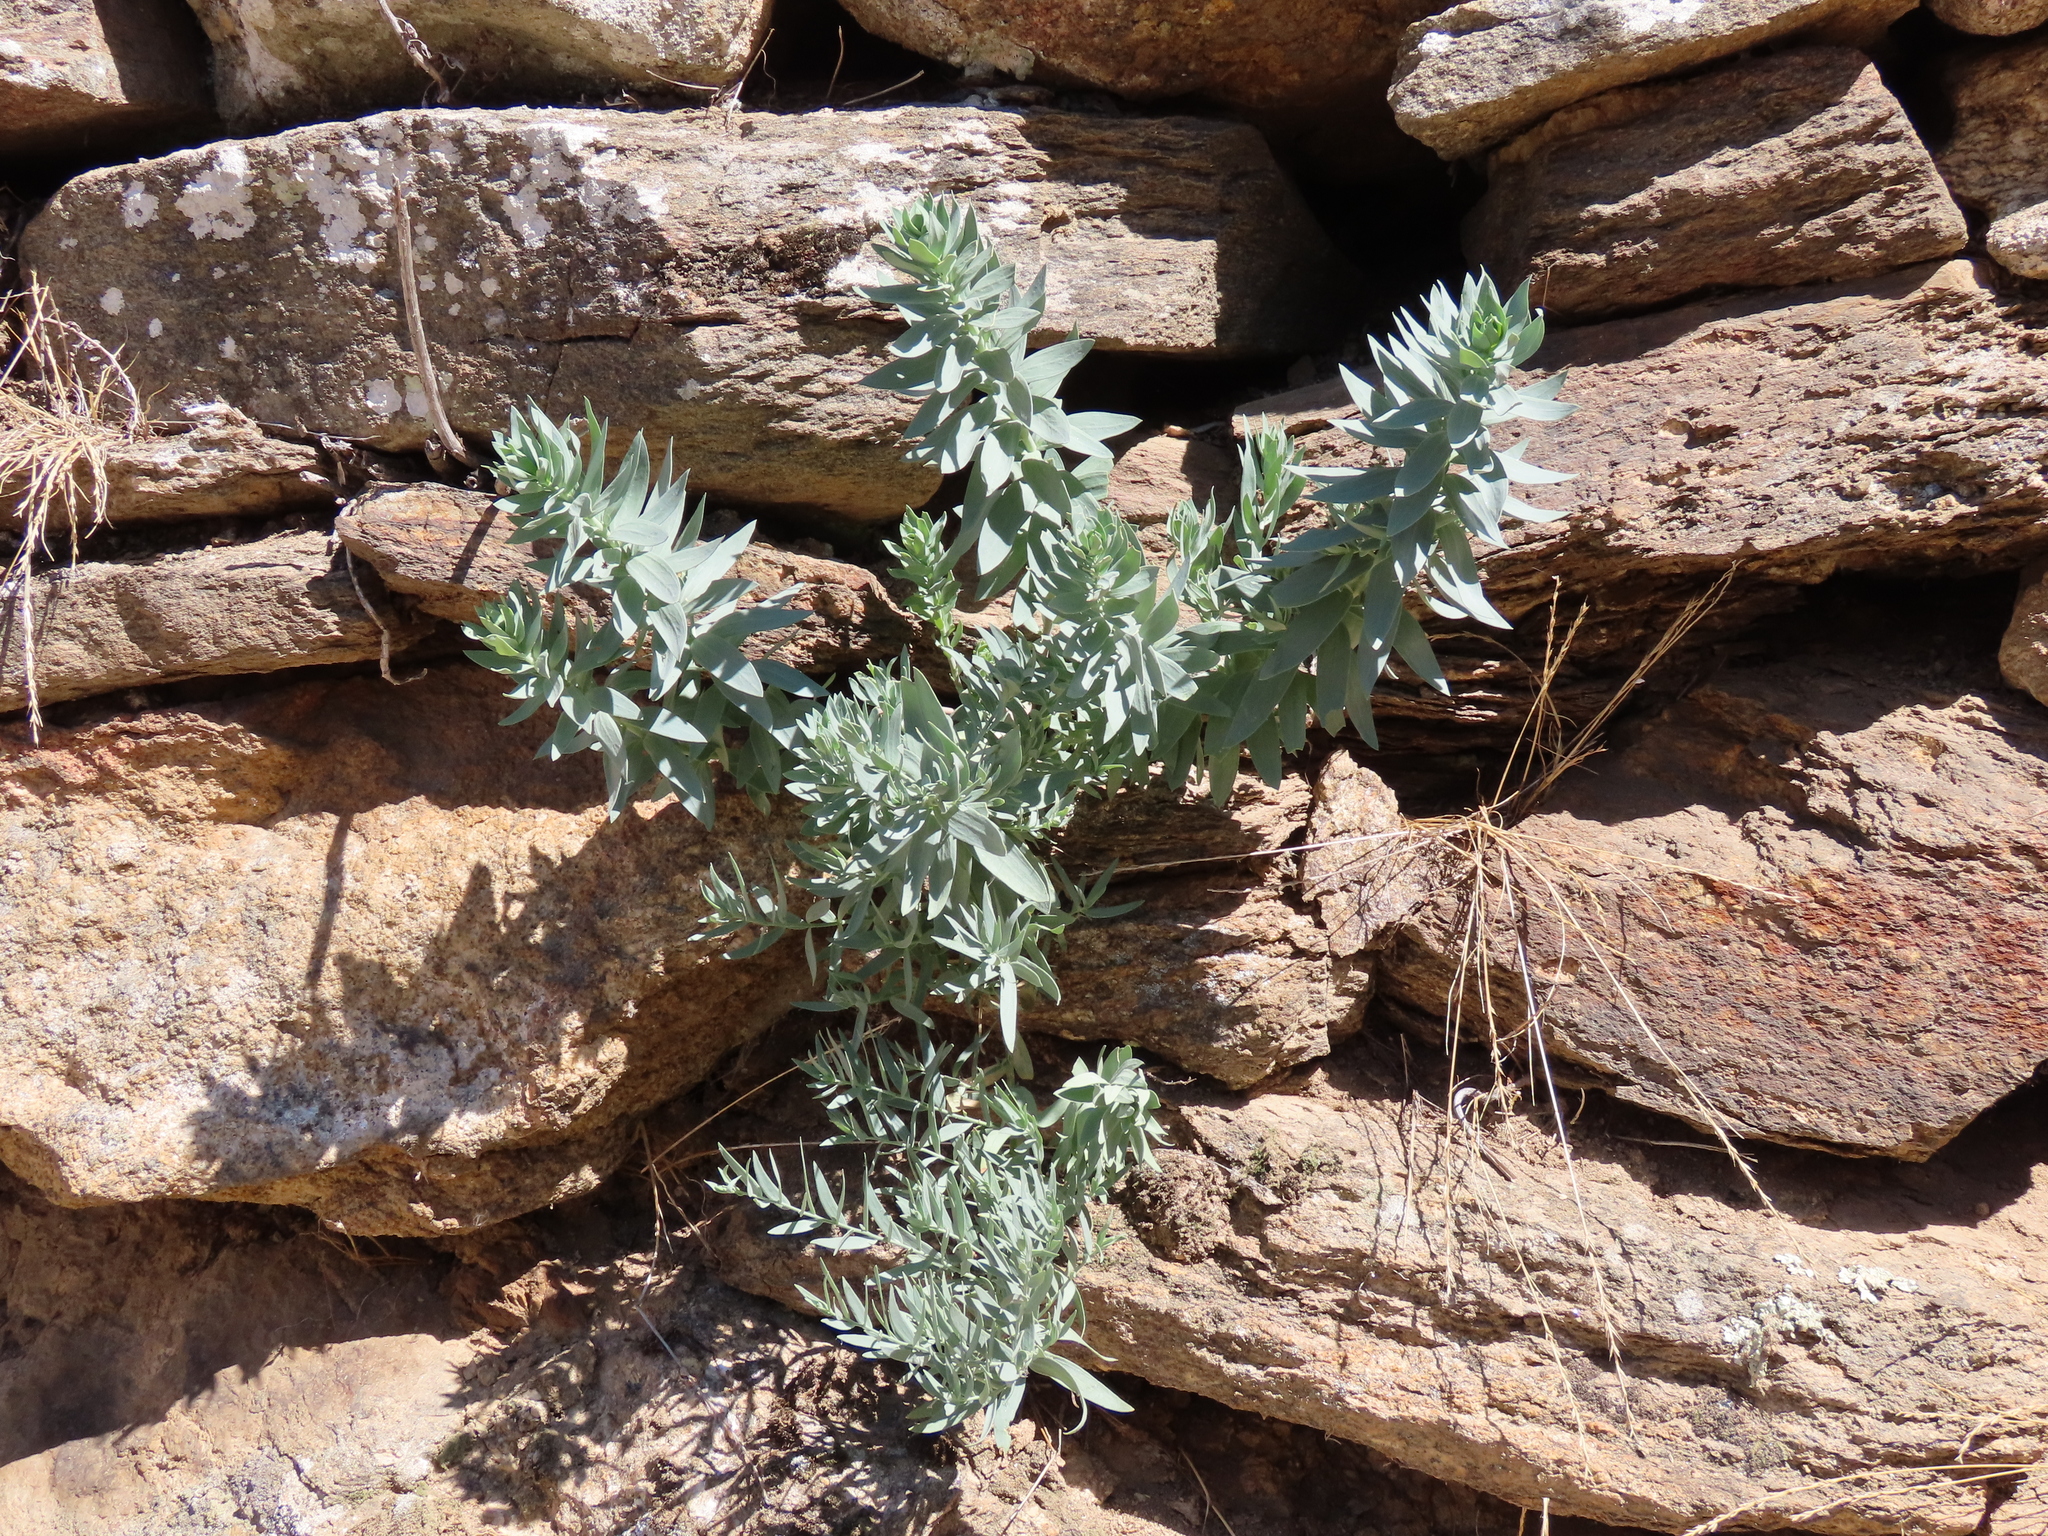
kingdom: Plantae
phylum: Tracheophyta
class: Magnoliopsida
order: Lamiales
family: Plantaginaceae
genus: Linaria
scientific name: Linaria nivea
